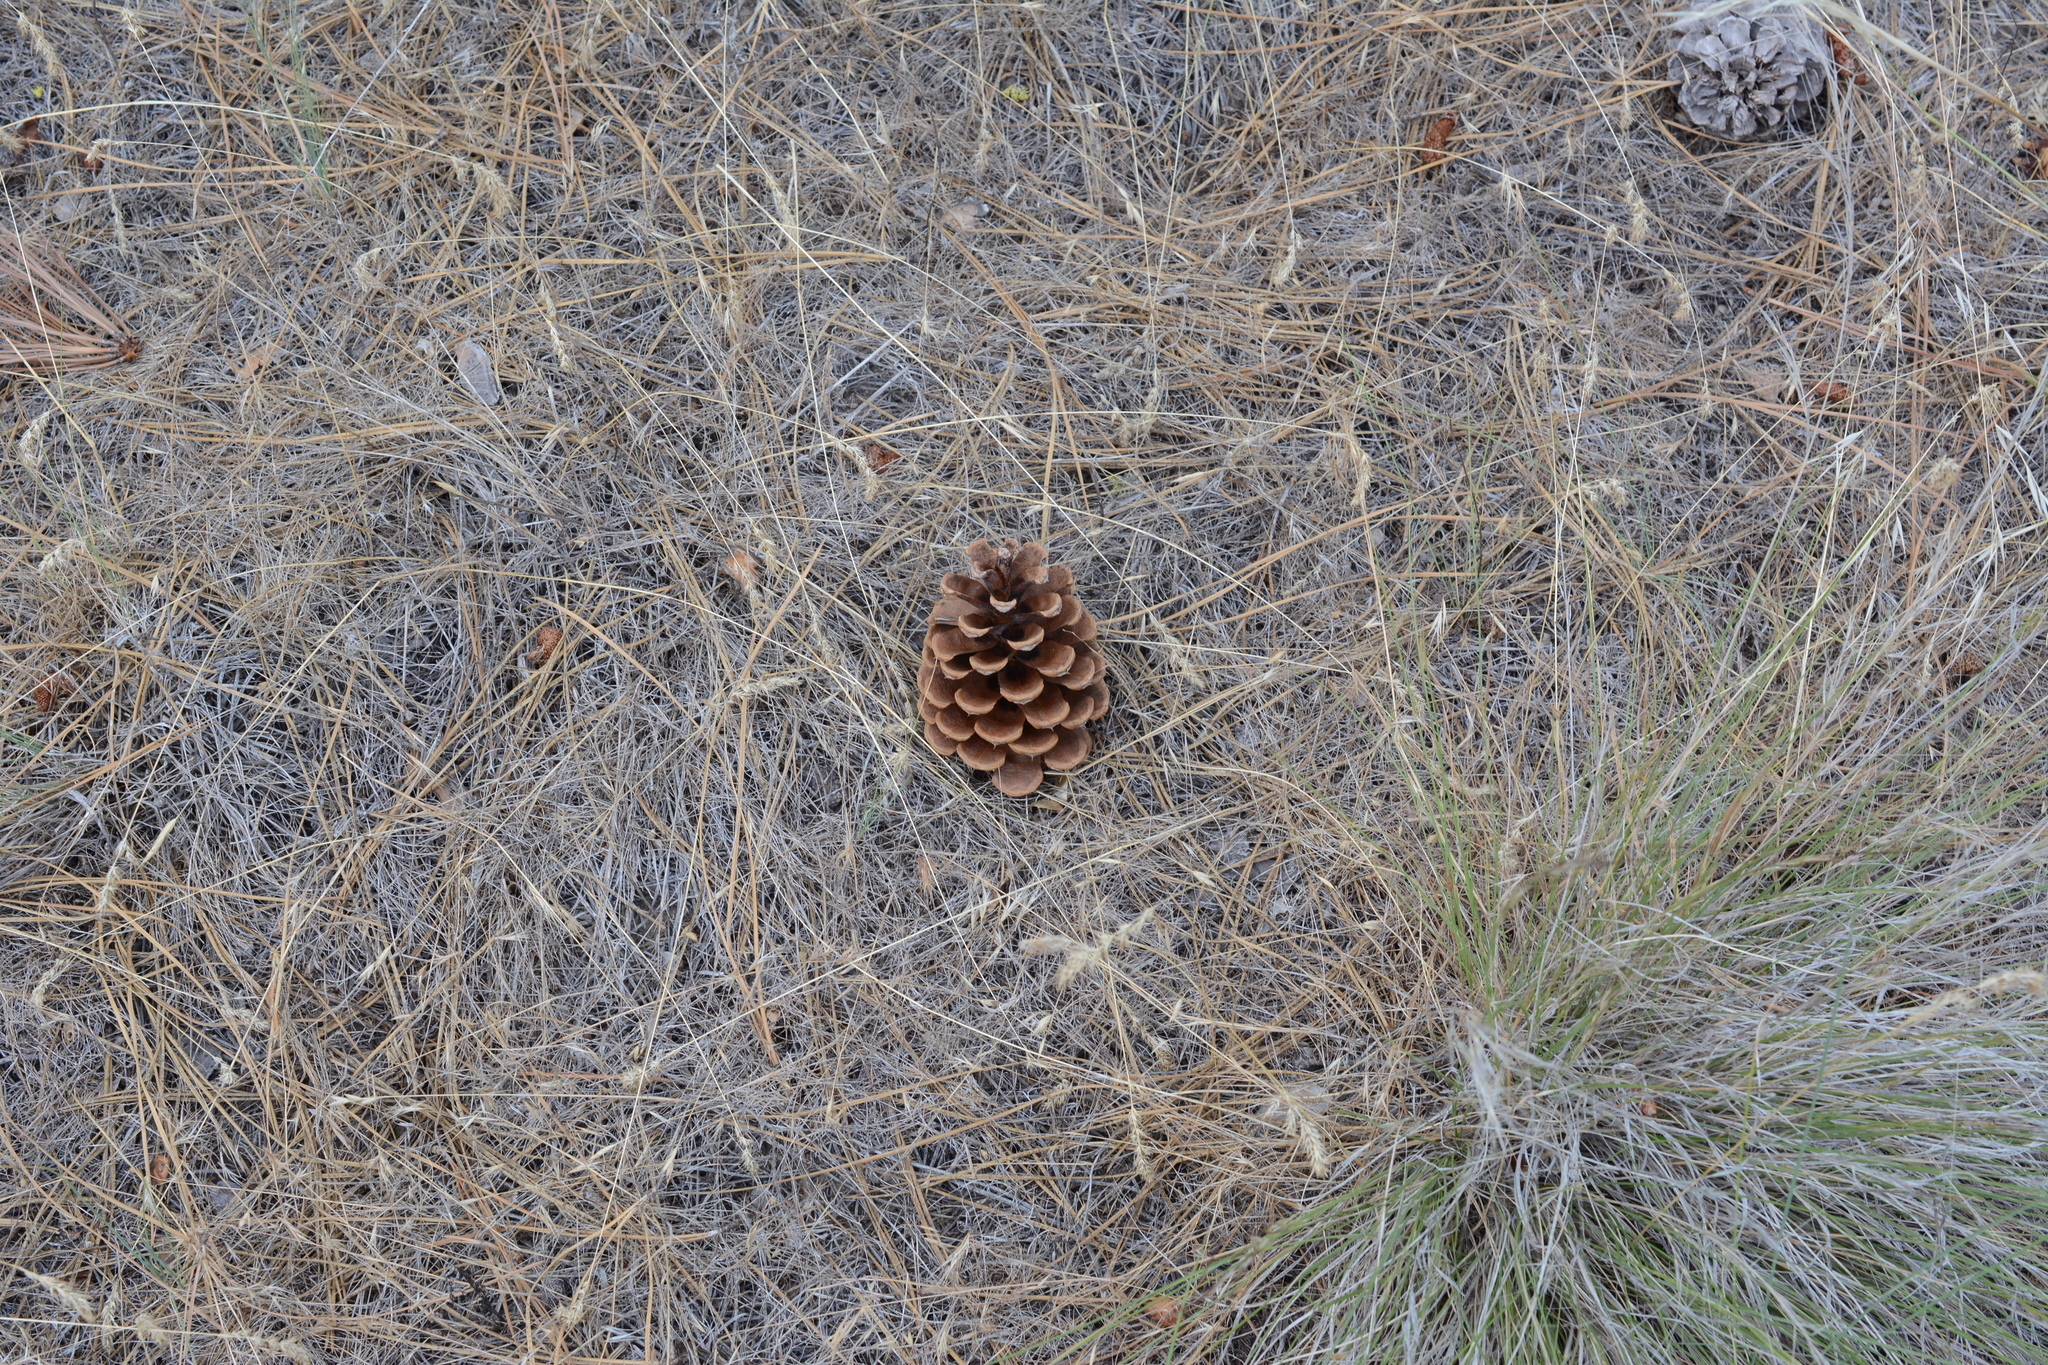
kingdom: Plantae
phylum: Tracheophyta
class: Pinopsida
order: Pinales
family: Pinaceae
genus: Pinus
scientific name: Pinus ponderosa
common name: Western yellow-pine
